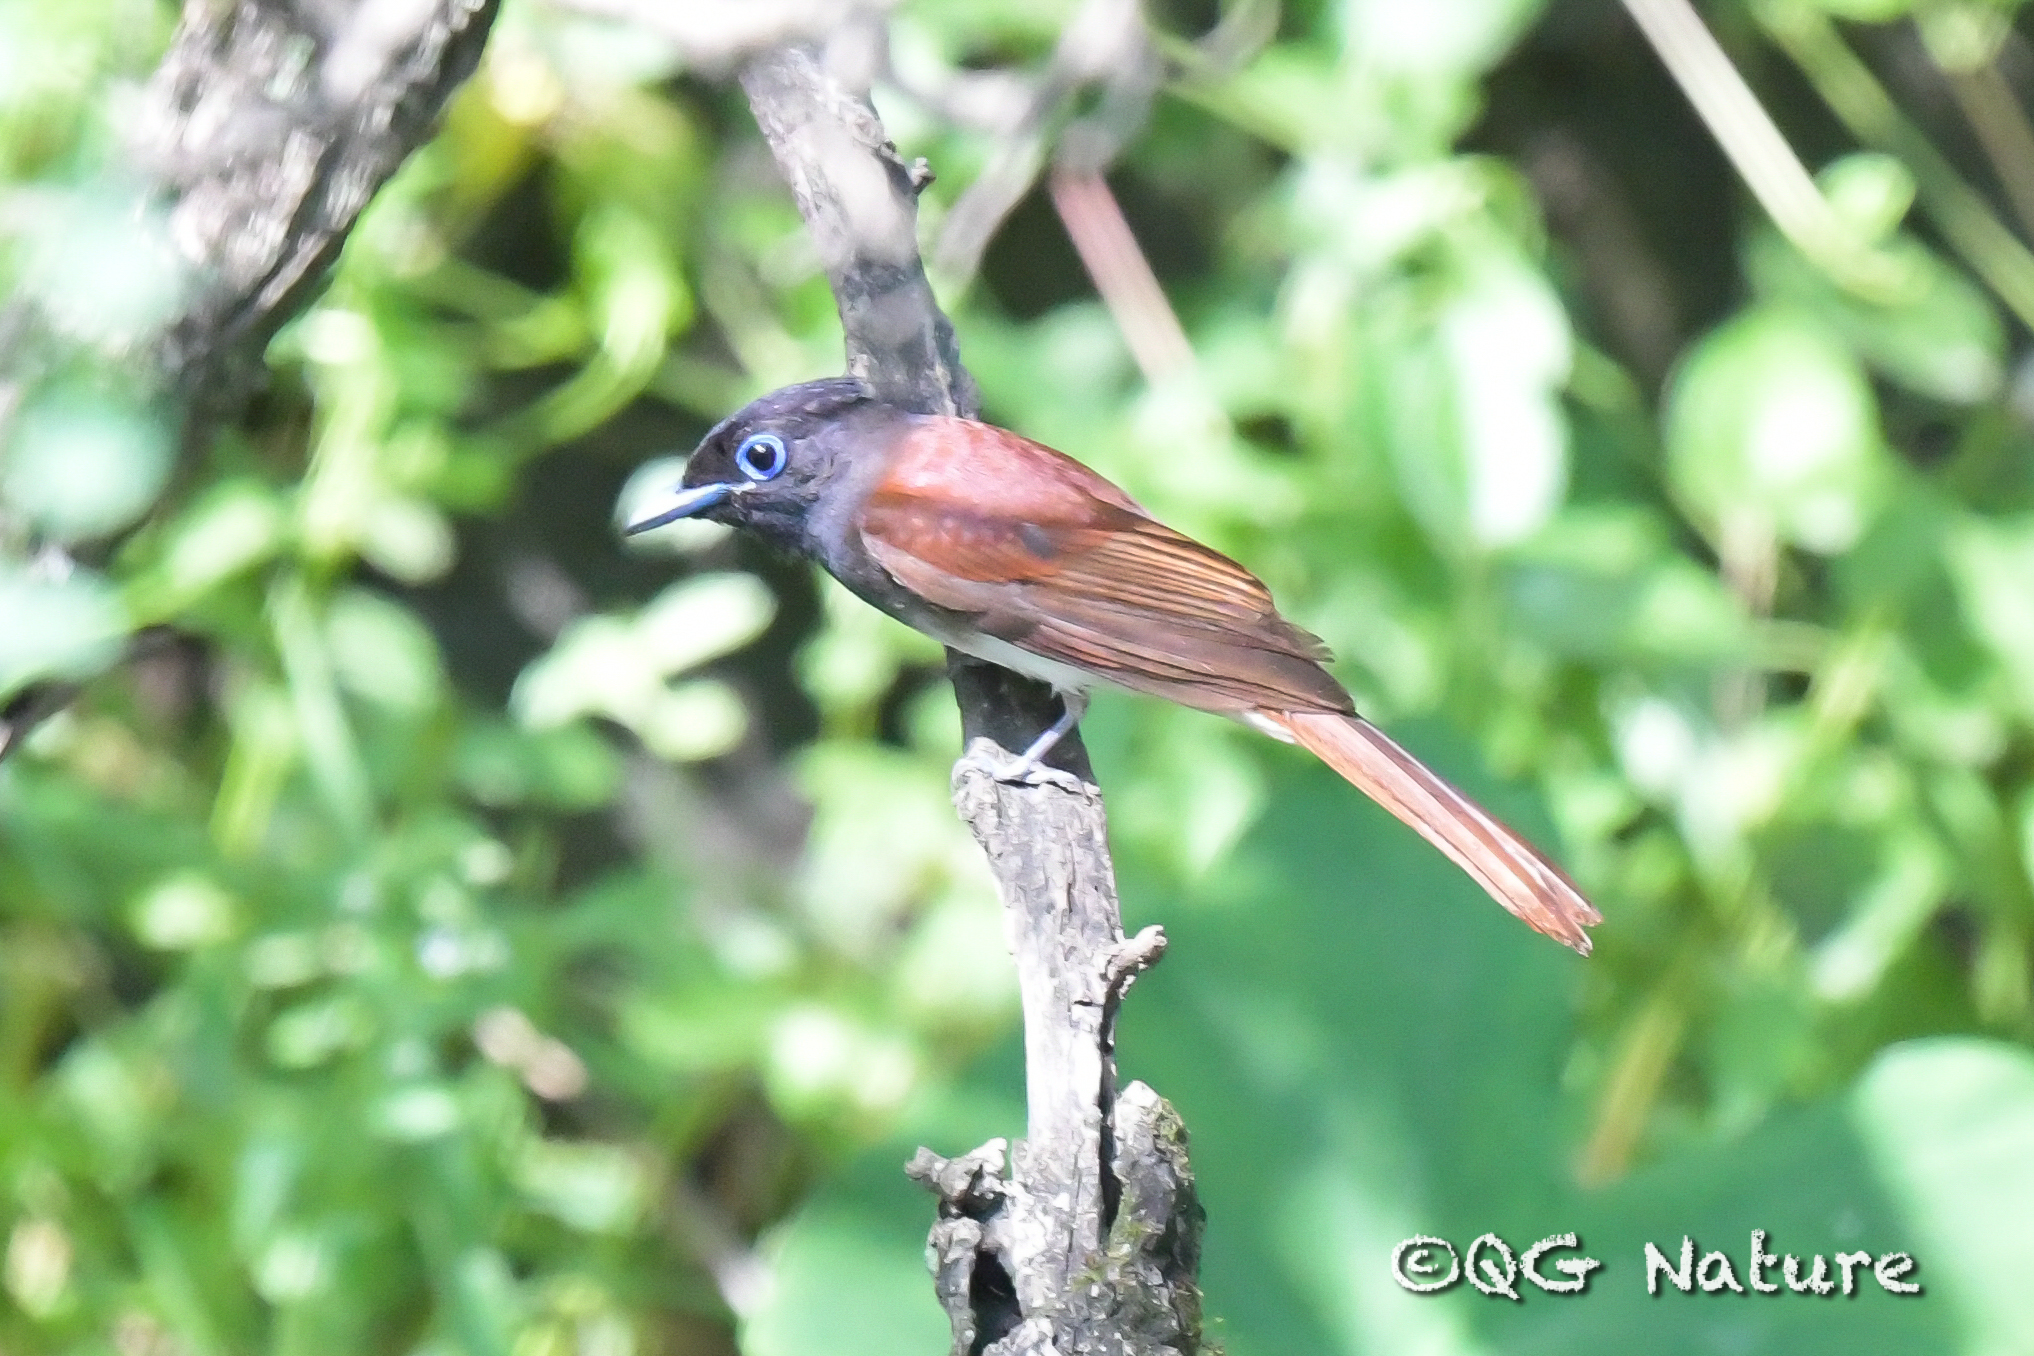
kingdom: Animalia
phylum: Chordata
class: Aves
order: Passeriformes
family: Monarchidae
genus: Terpsiphone
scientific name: Terpsiphone paradisi
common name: Indian paradise flycatcher
